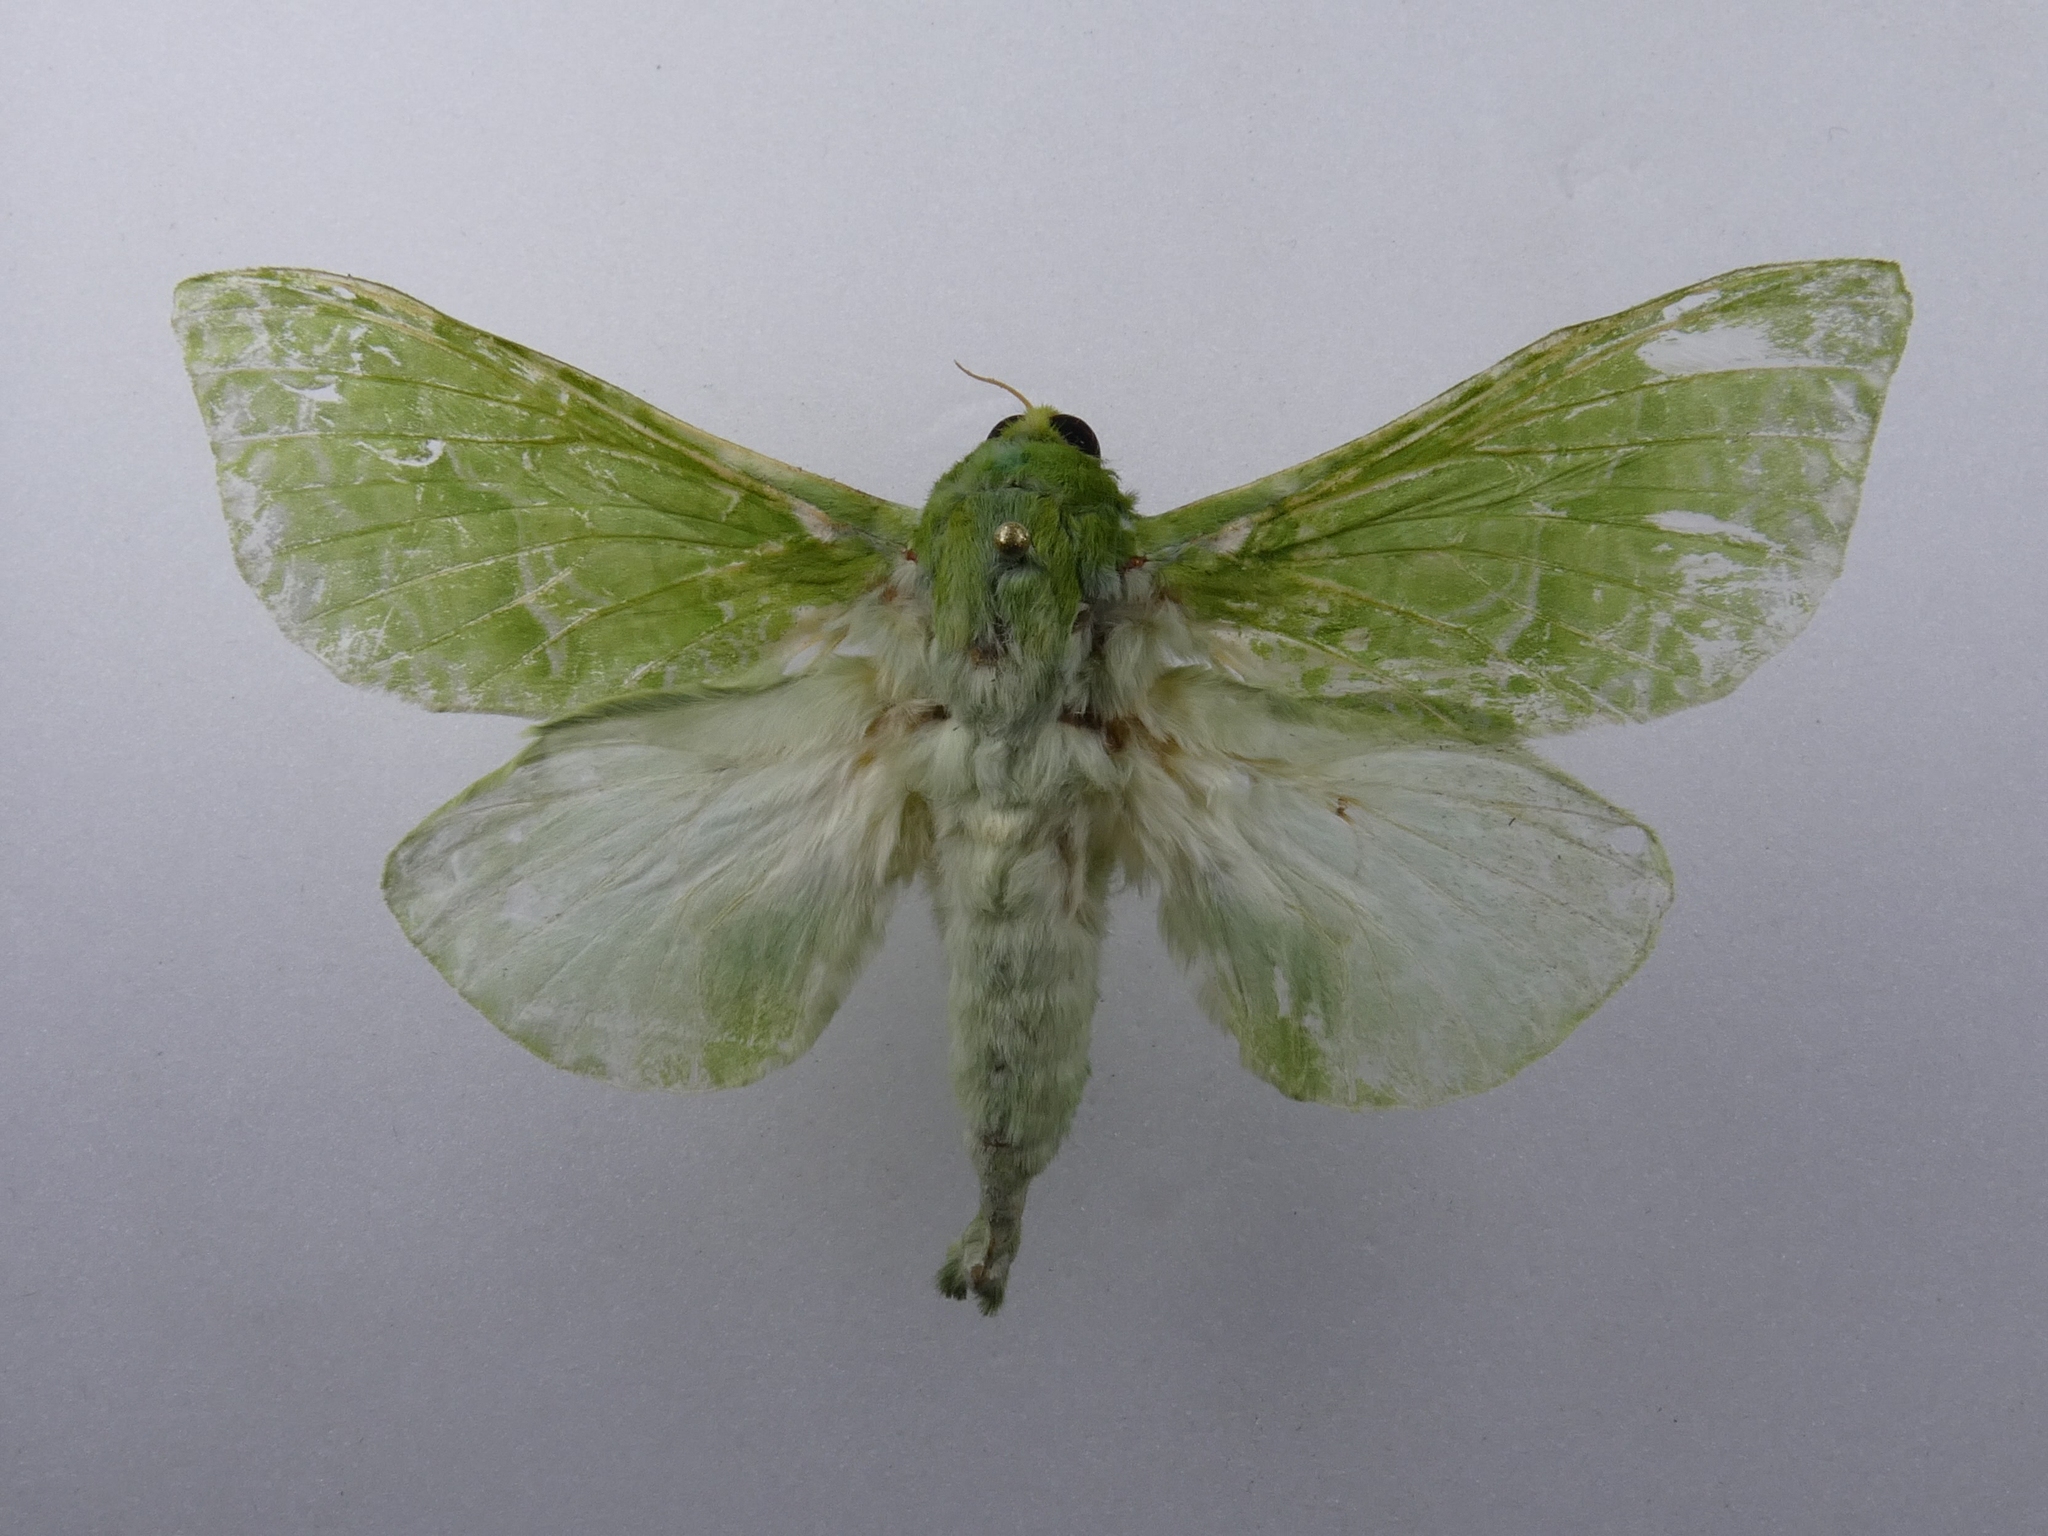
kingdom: Animalia
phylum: Arthropoda
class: Insecta
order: Lepidoptera
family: Hepialidae
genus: Aenetus
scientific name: Aenetus virescens
